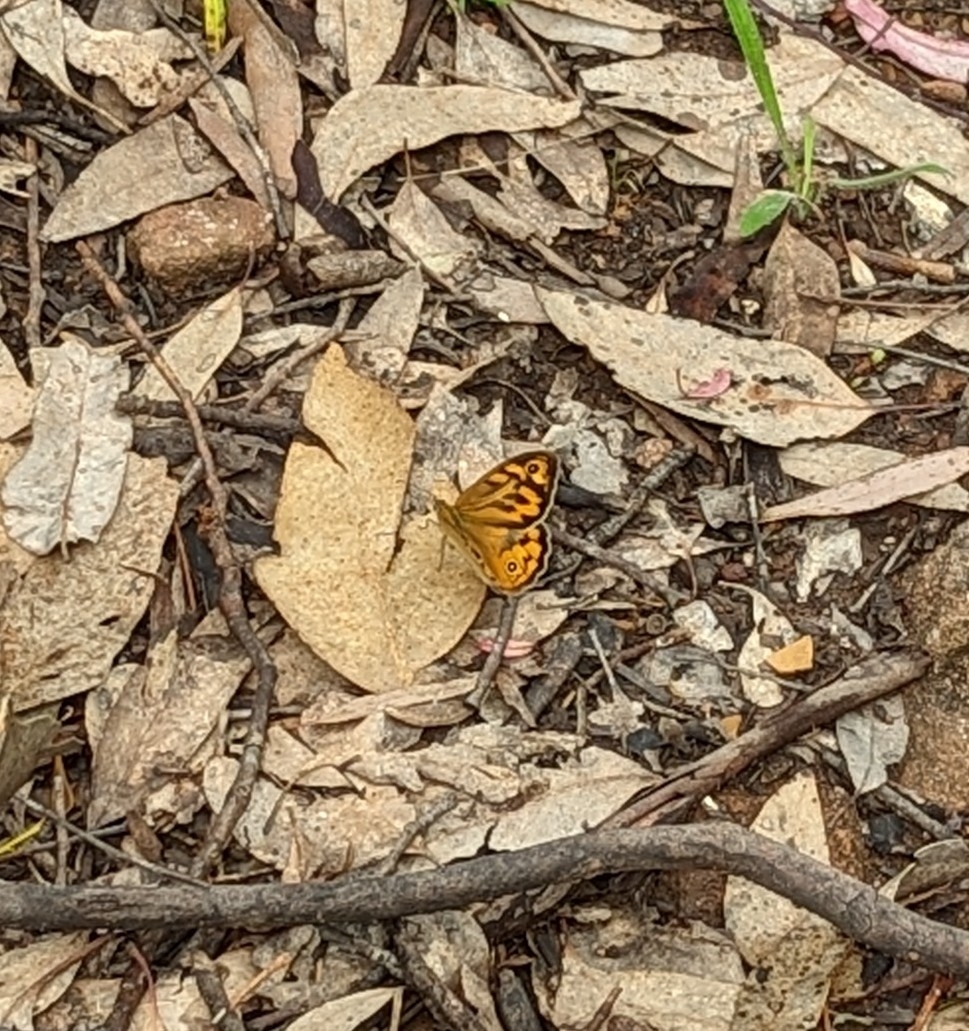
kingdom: Animalia
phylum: Arthropoda
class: Insecta
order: Lepidoptera
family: Nymphalidae
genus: Heteronympha
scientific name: Heteronympha merope
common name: Common brown
